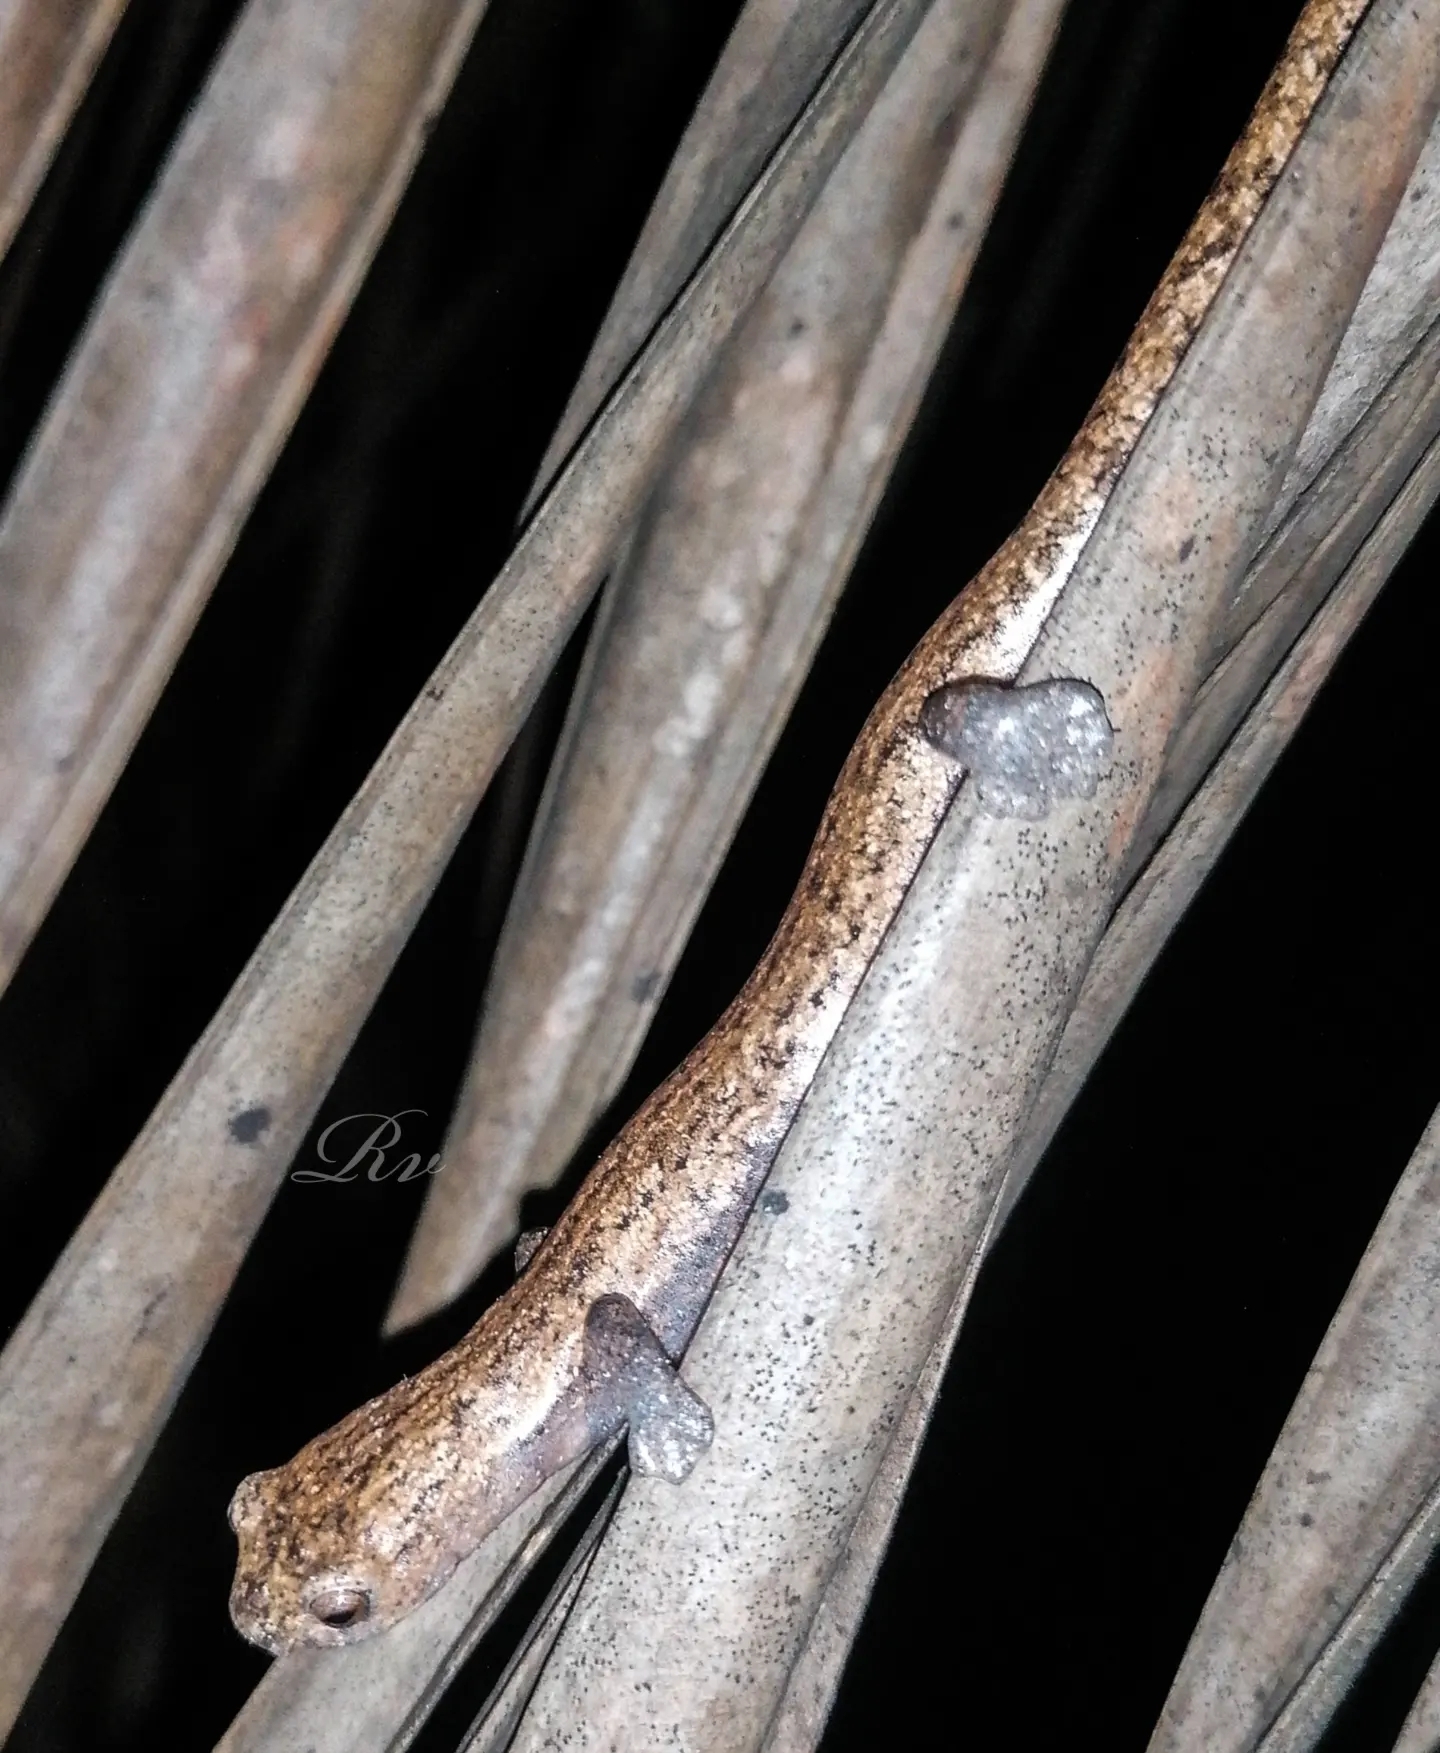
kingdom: Animalia
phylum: Chordata
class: Amphibia
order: Caudata
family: Plethodontidae
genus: Bolitoglossa
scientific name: Bolitoglossa lignicolor
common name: Camron mushroomtongue salamander
